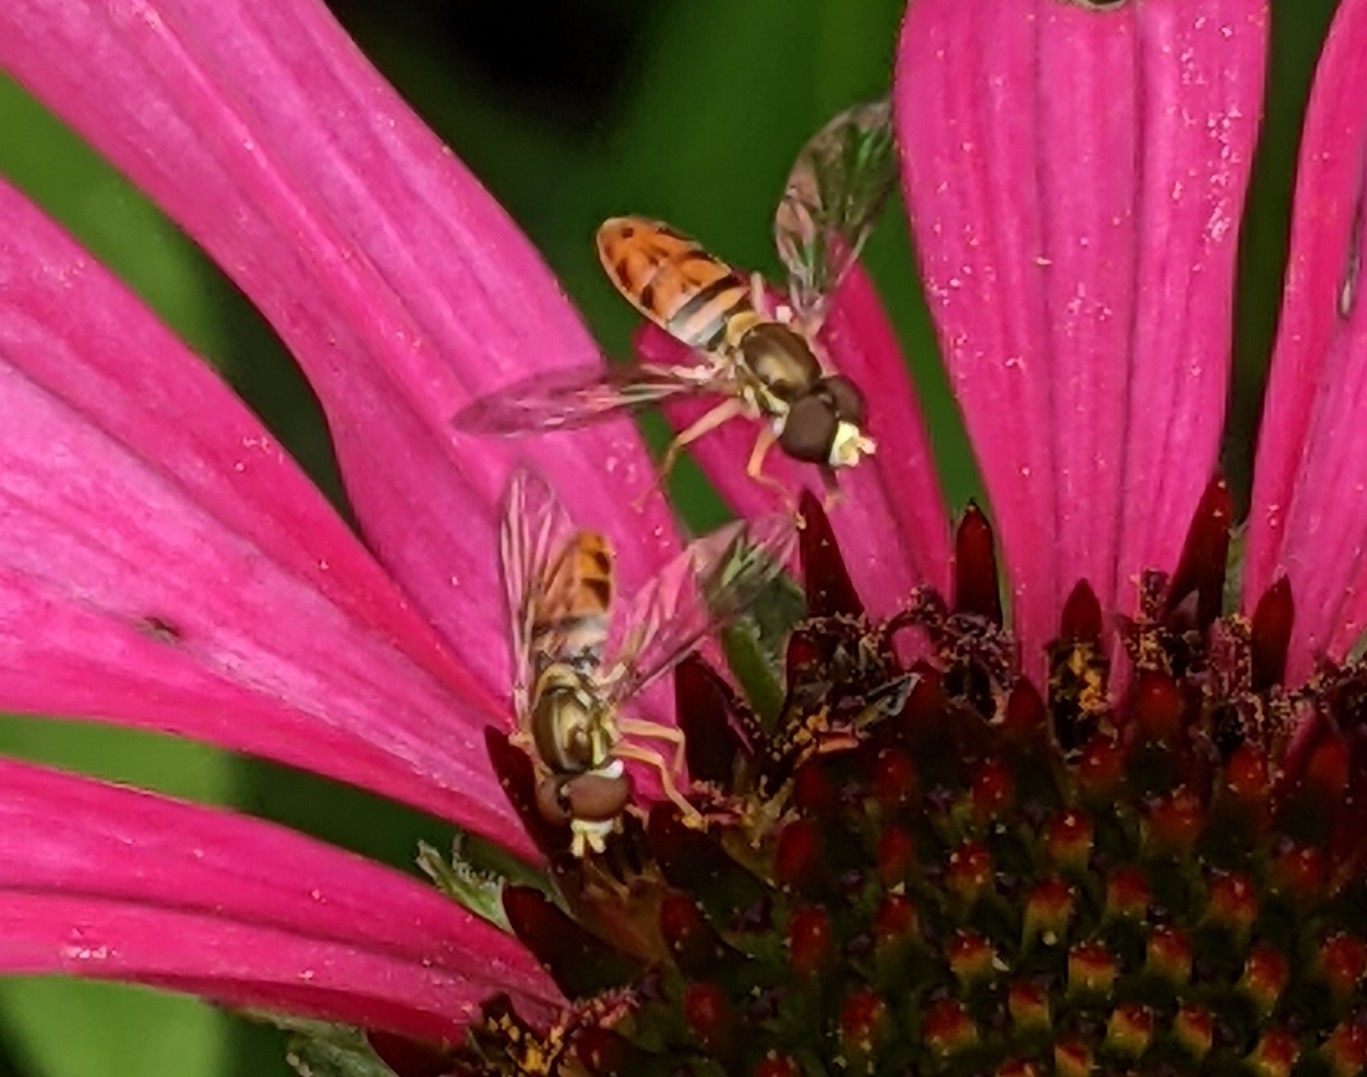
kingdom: Animalia
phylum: Arthropoda
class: Insecta
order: Diptera
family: Syrphidae
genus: Toxomerus
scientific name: Toxomerus marginatus
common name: Syrphid fly
